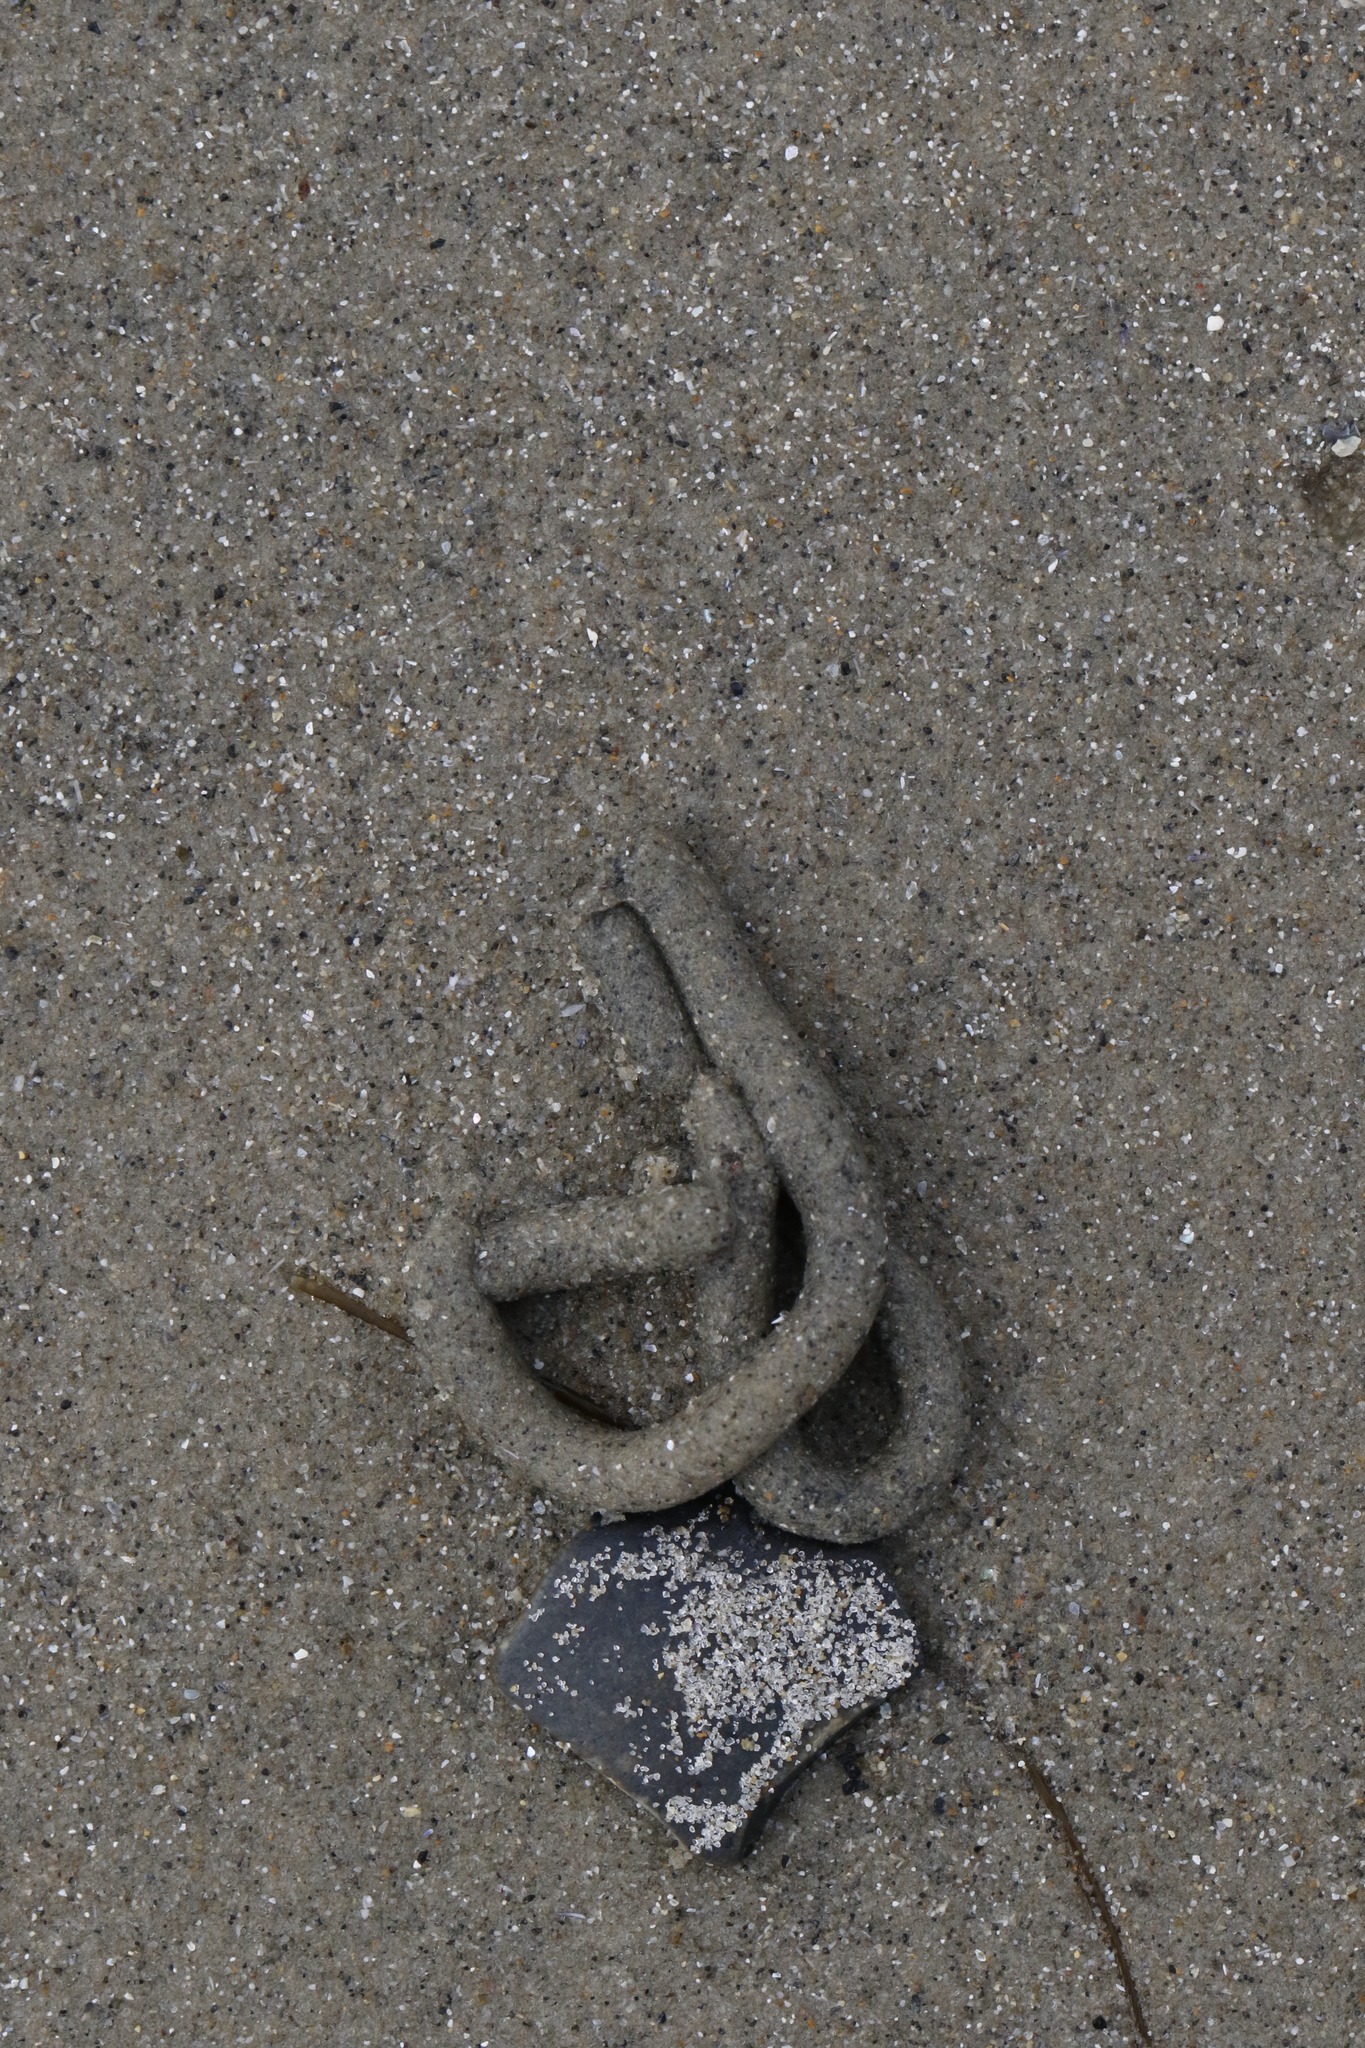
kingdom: Animalia
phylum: Annelida
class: Polychaeta
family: Arenicolidae
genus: Arenicola
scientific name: Arenicola marina
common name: Blow lugworm
